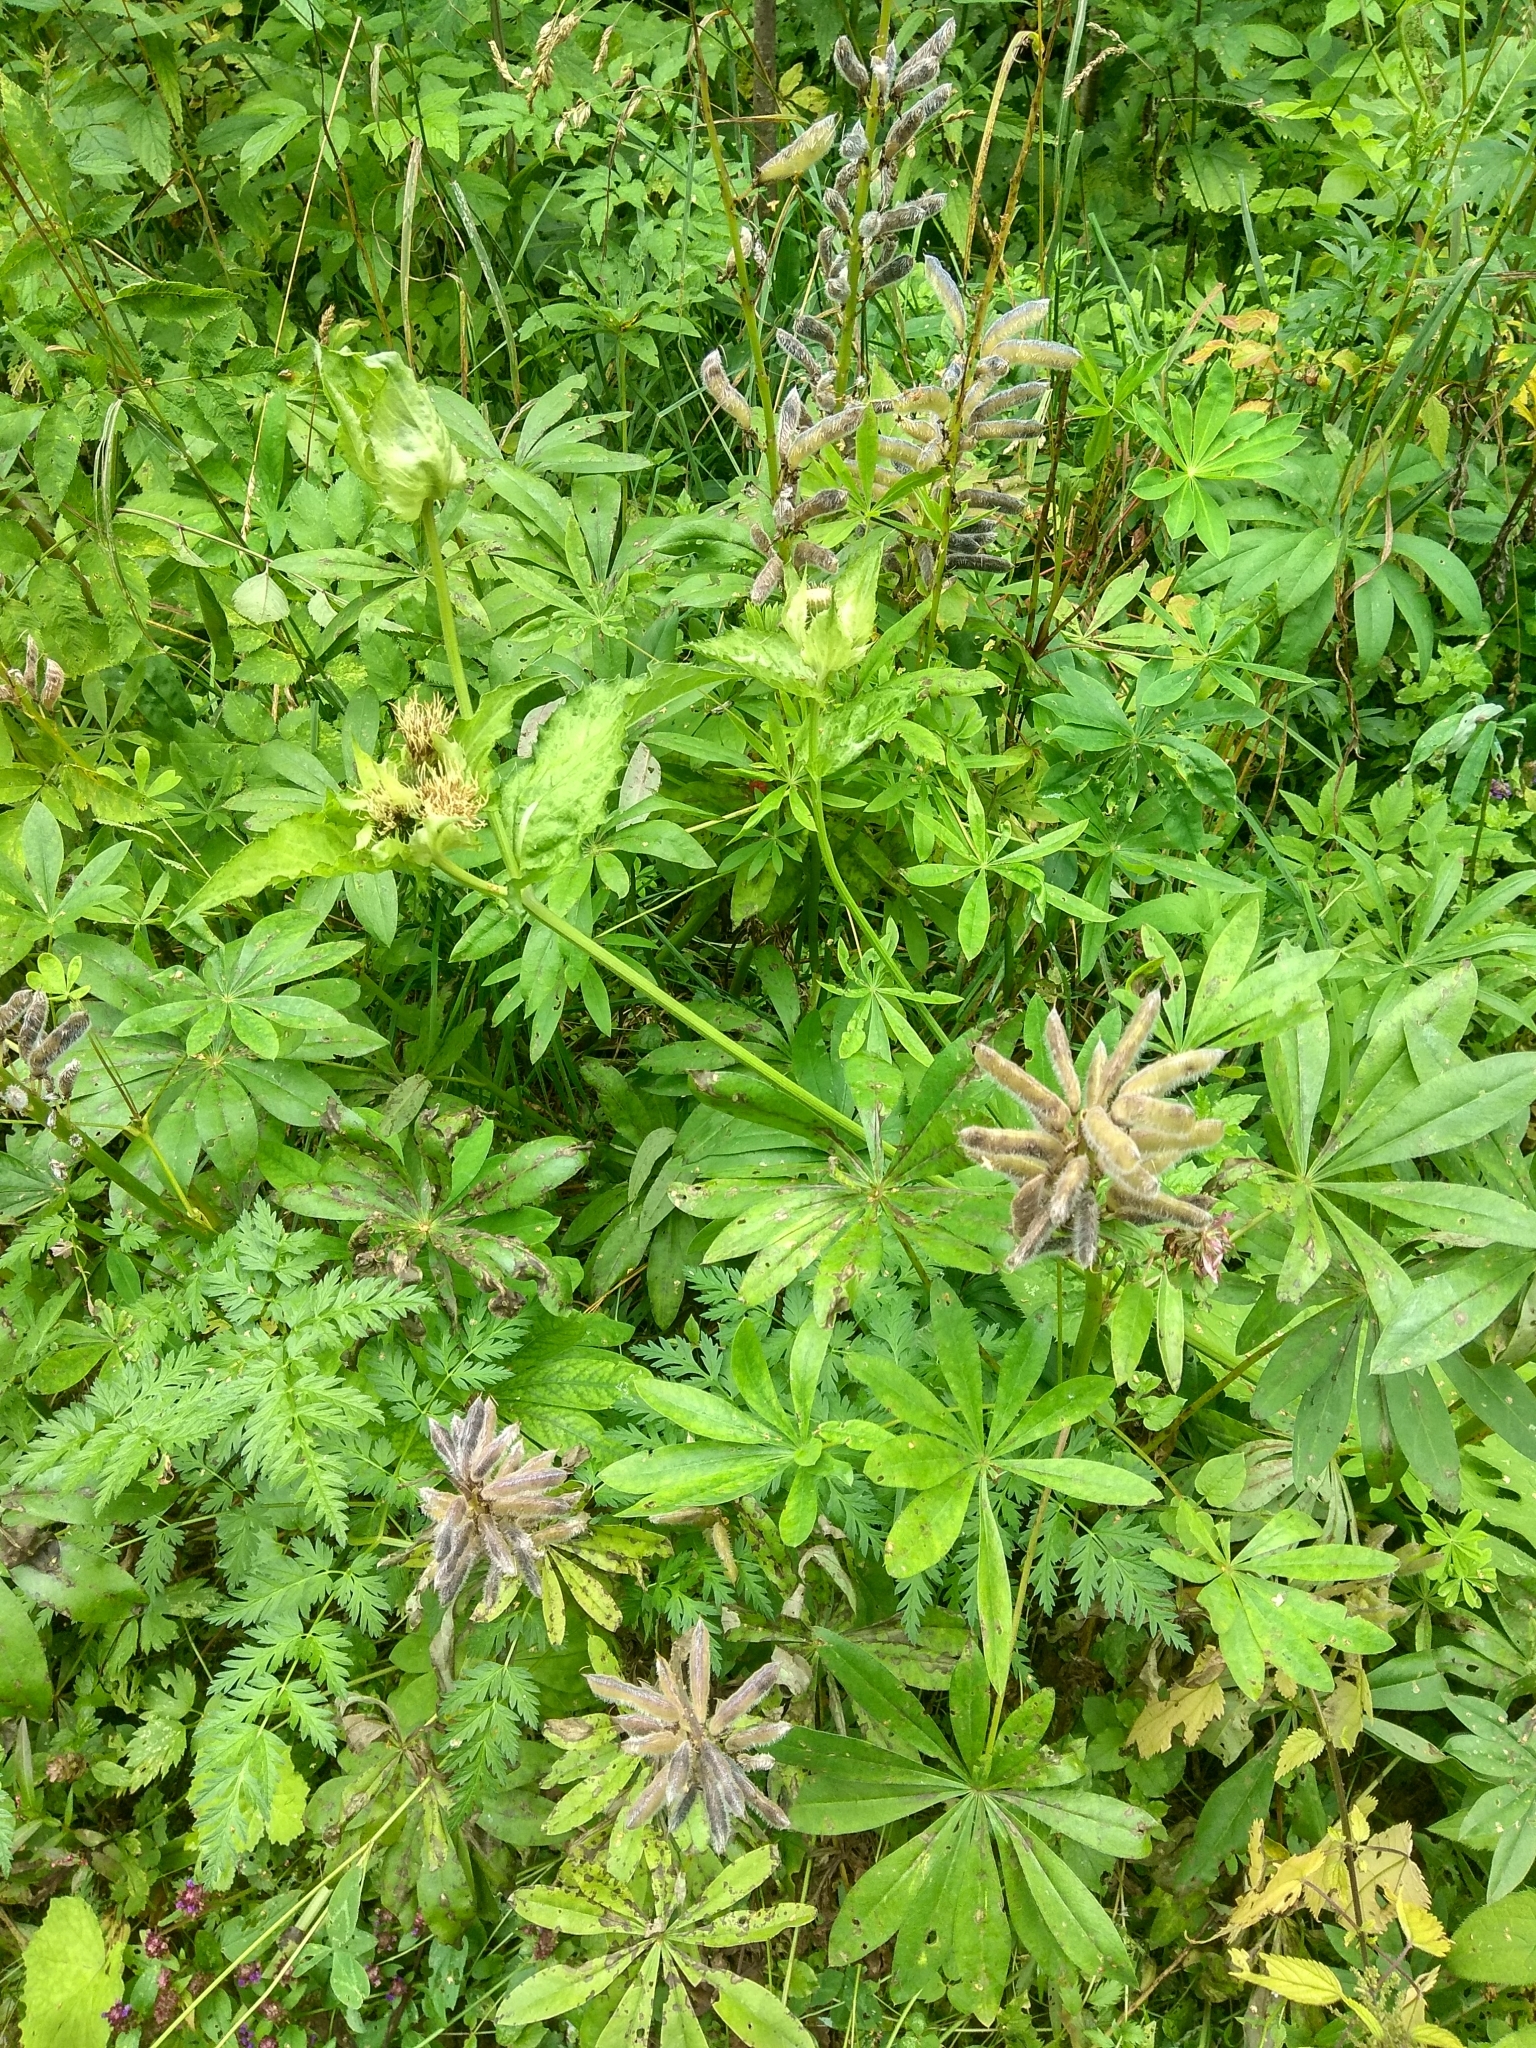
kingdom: Plantae
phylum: Tracheophyta
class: Magnoliopsida
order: Fabales
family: Fabaceae
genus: Lupinus
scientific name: Lupinus polyphyllus
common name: Garden lupin
